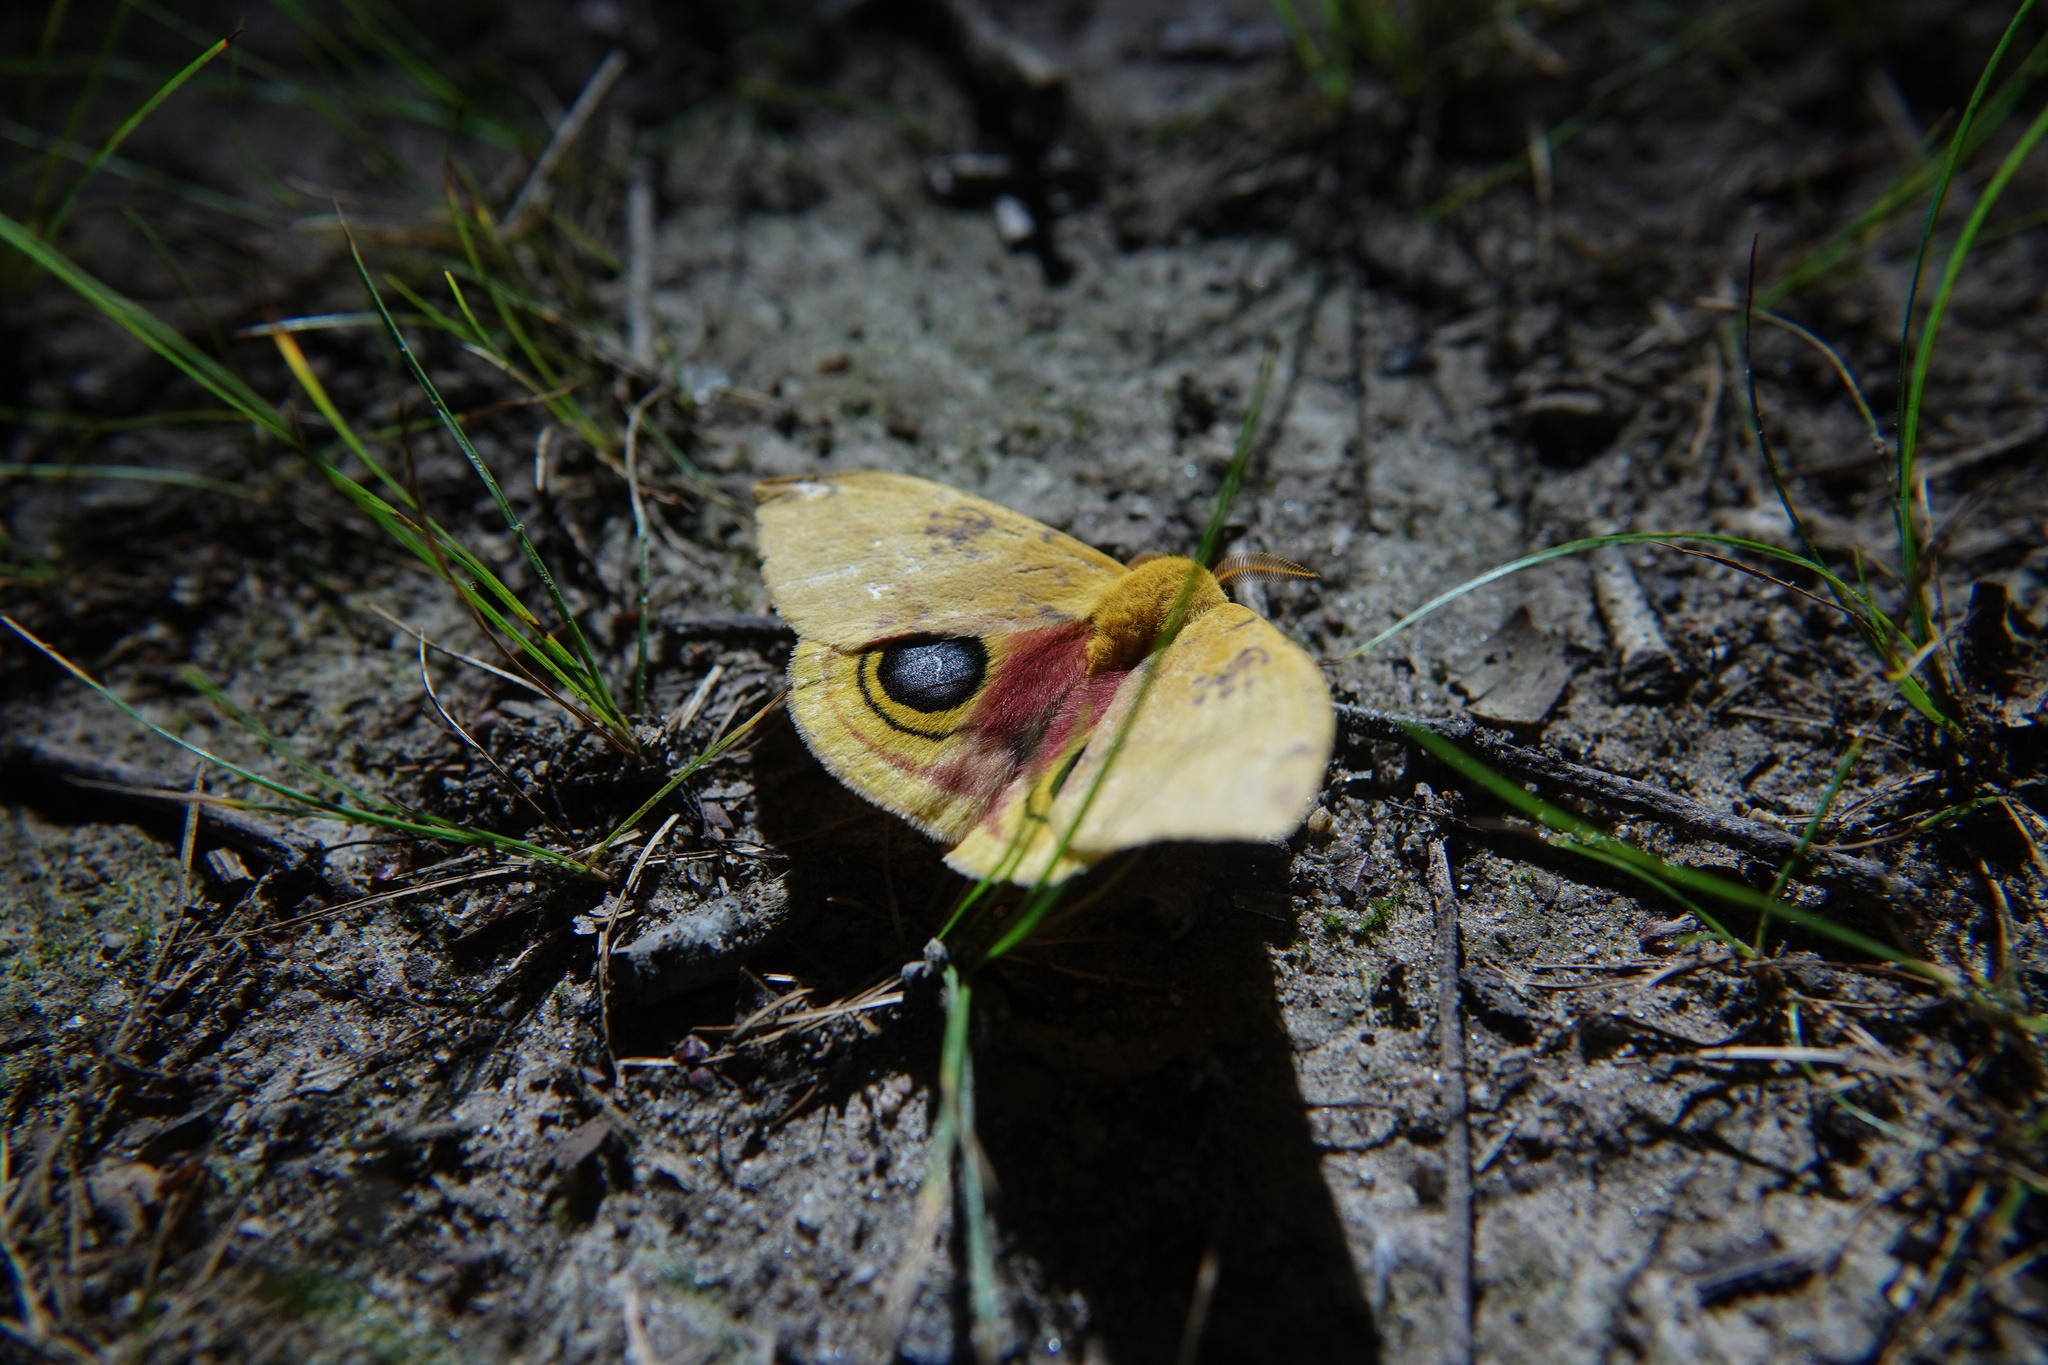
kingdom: Animalia
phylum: Arthropoda
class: Insecta
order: Lepidoptera
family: Saturniidae
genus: Automeris
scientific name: Automeris io
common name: Io moth
